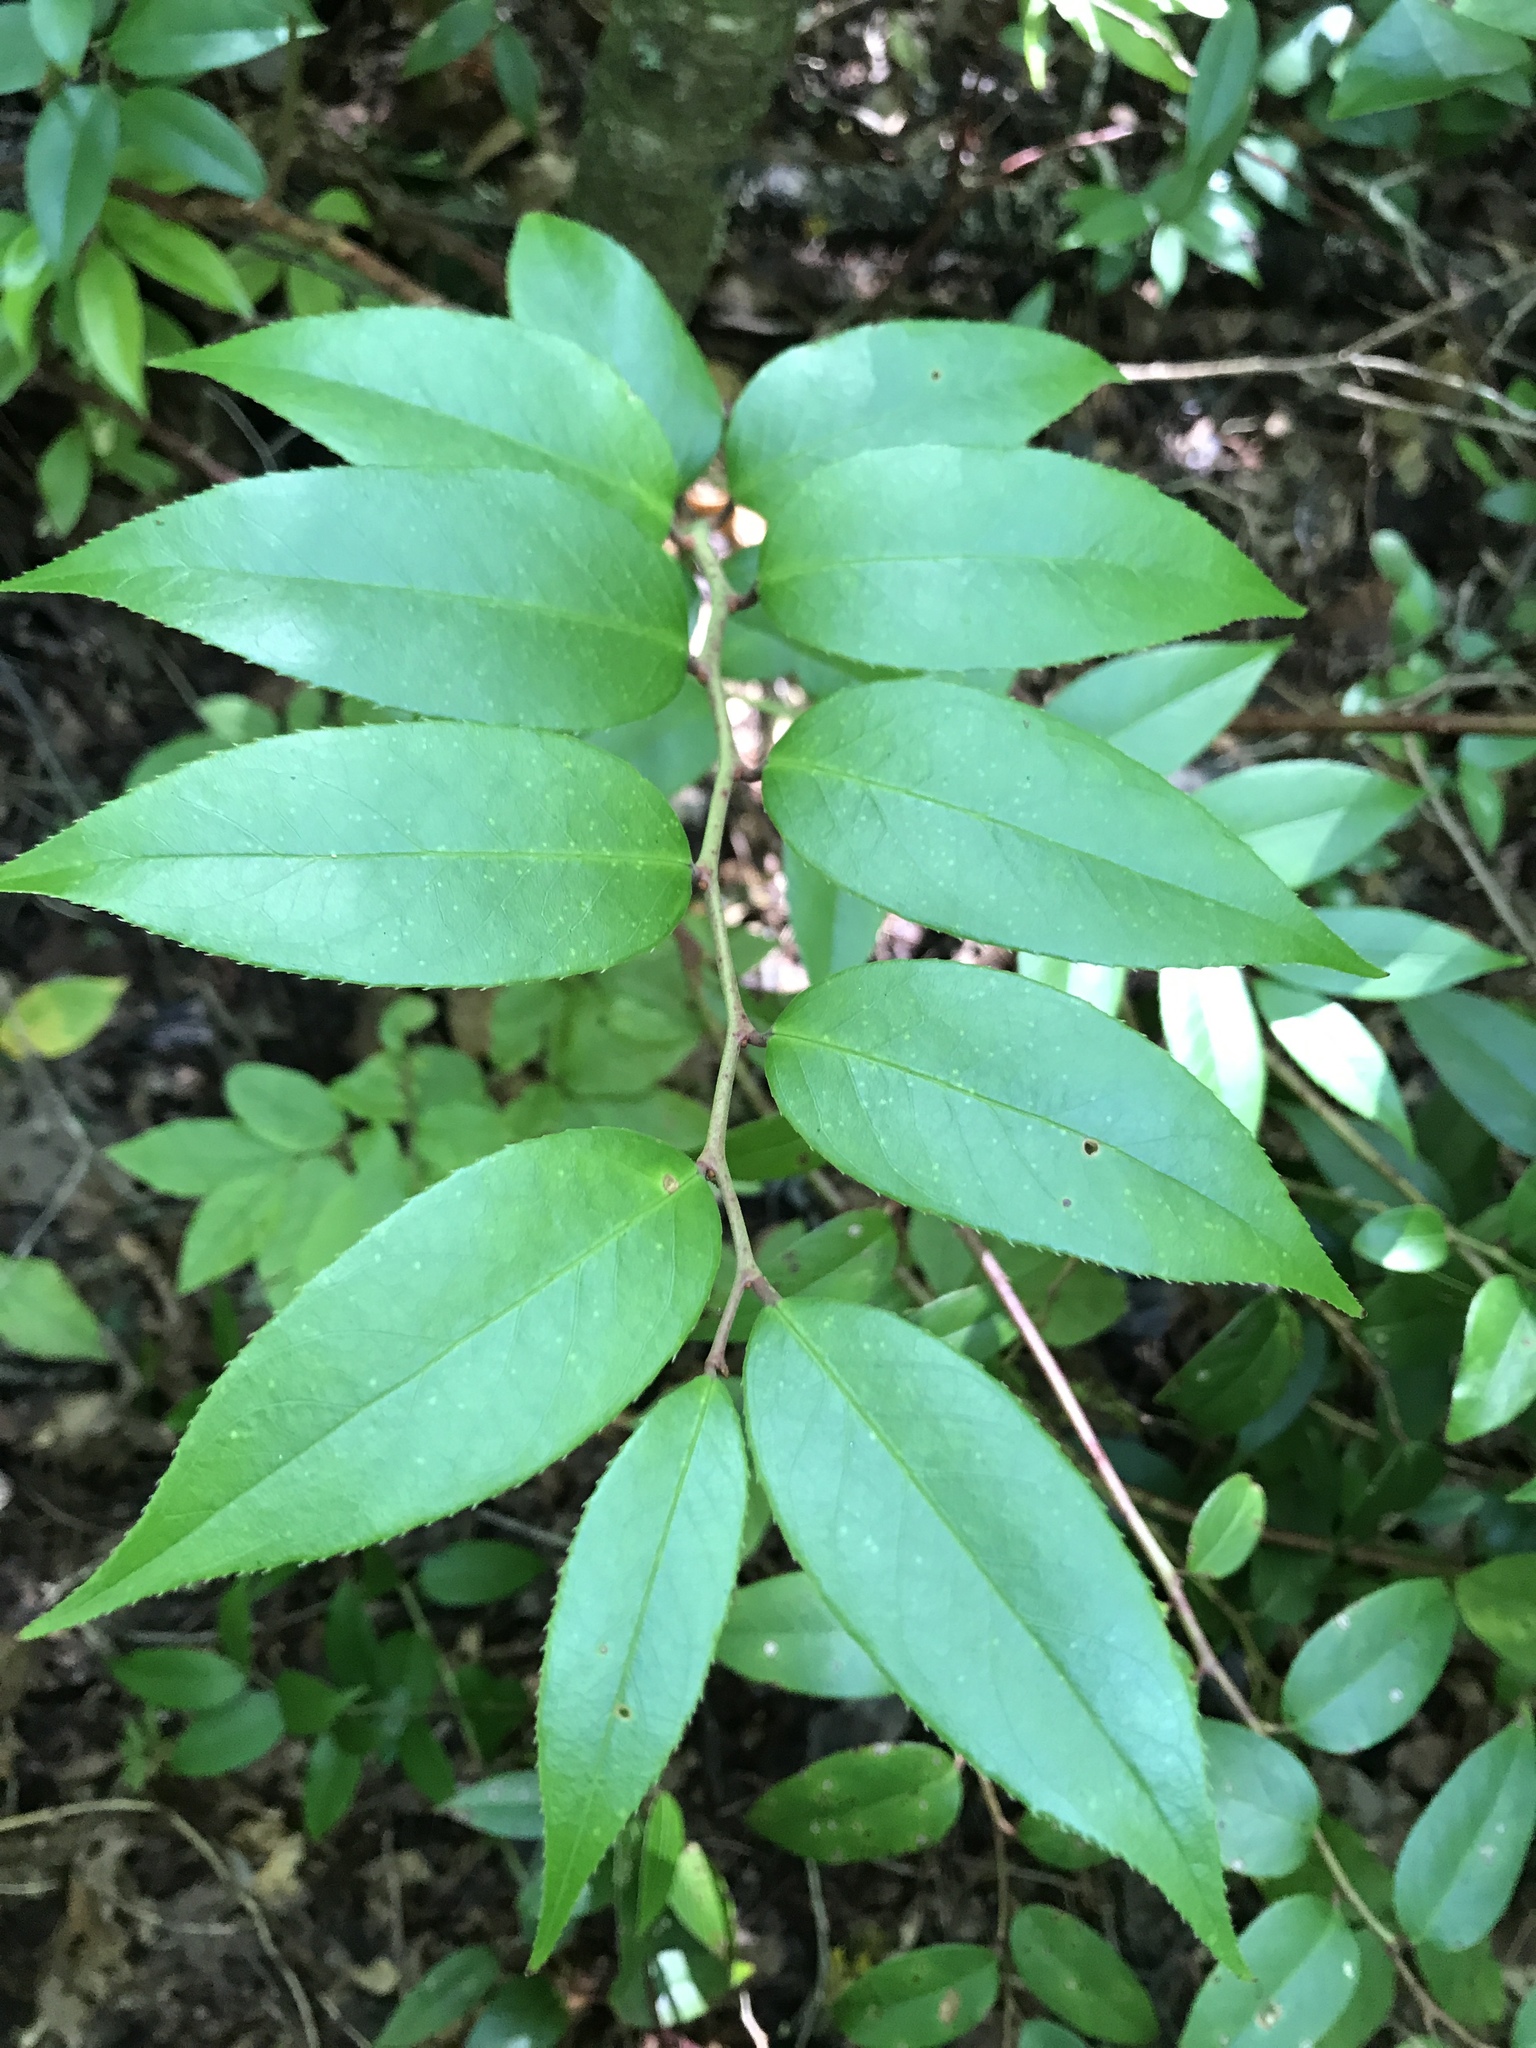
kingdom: Plantae
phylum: Tracheophyta
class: Magnoliopsida
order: Ericales
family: Ericaceae
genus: Leucothoe
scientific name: Leucothoe fontanesiana
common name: Fetterbush
